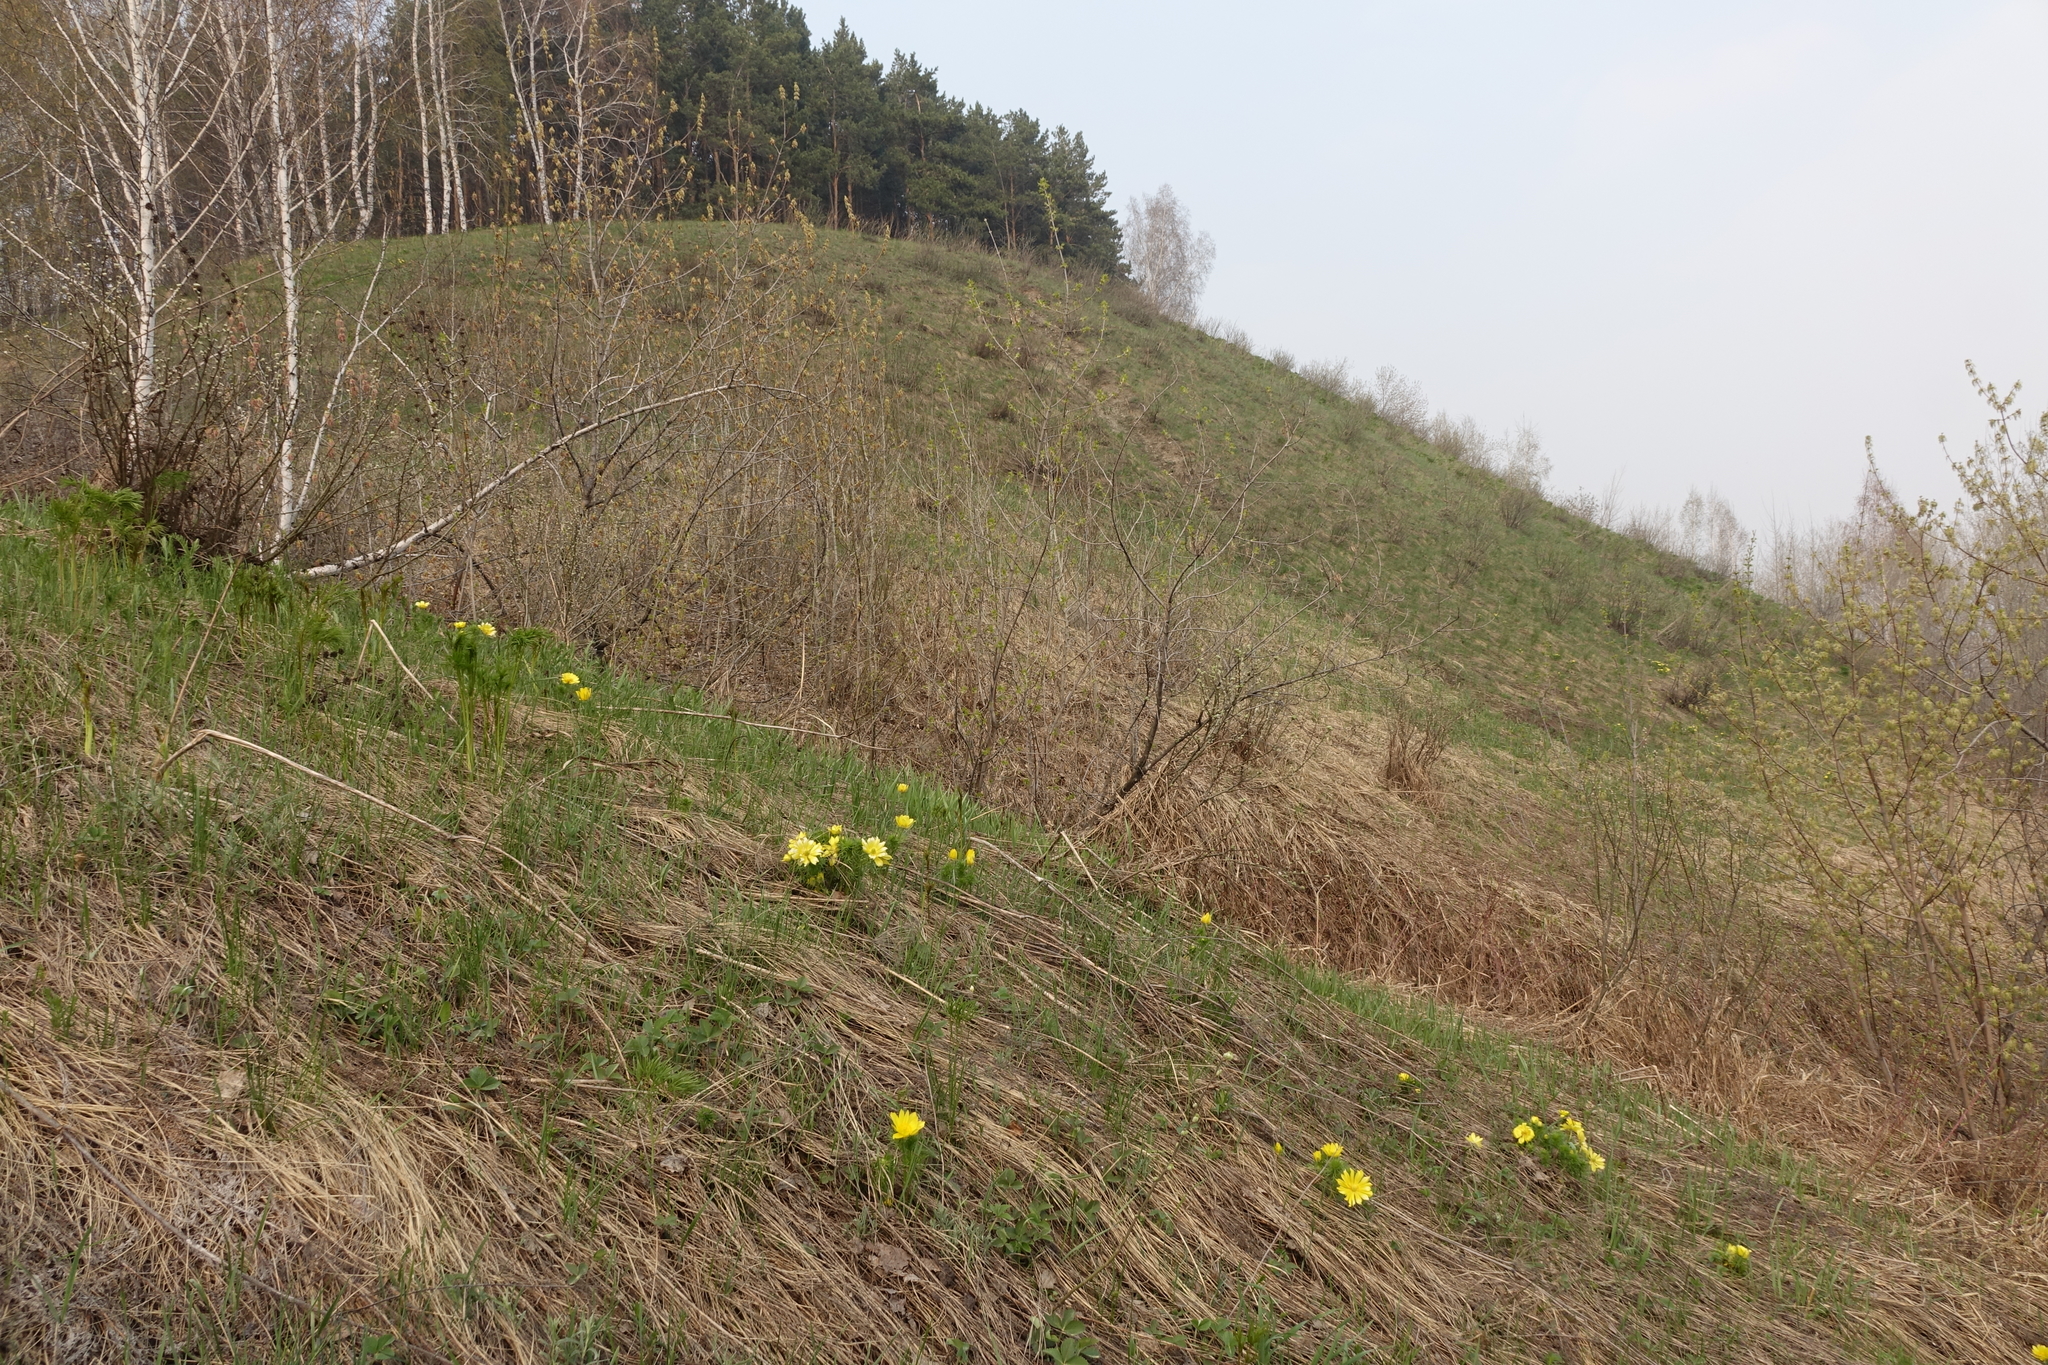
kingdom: Plantae
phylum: Tracheophyta
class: Magnoliopsida
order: Ranunculales
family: Ranunculaceae
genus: Adonis
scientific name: Adonis vernalis
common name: Yellow pheasants-eye
